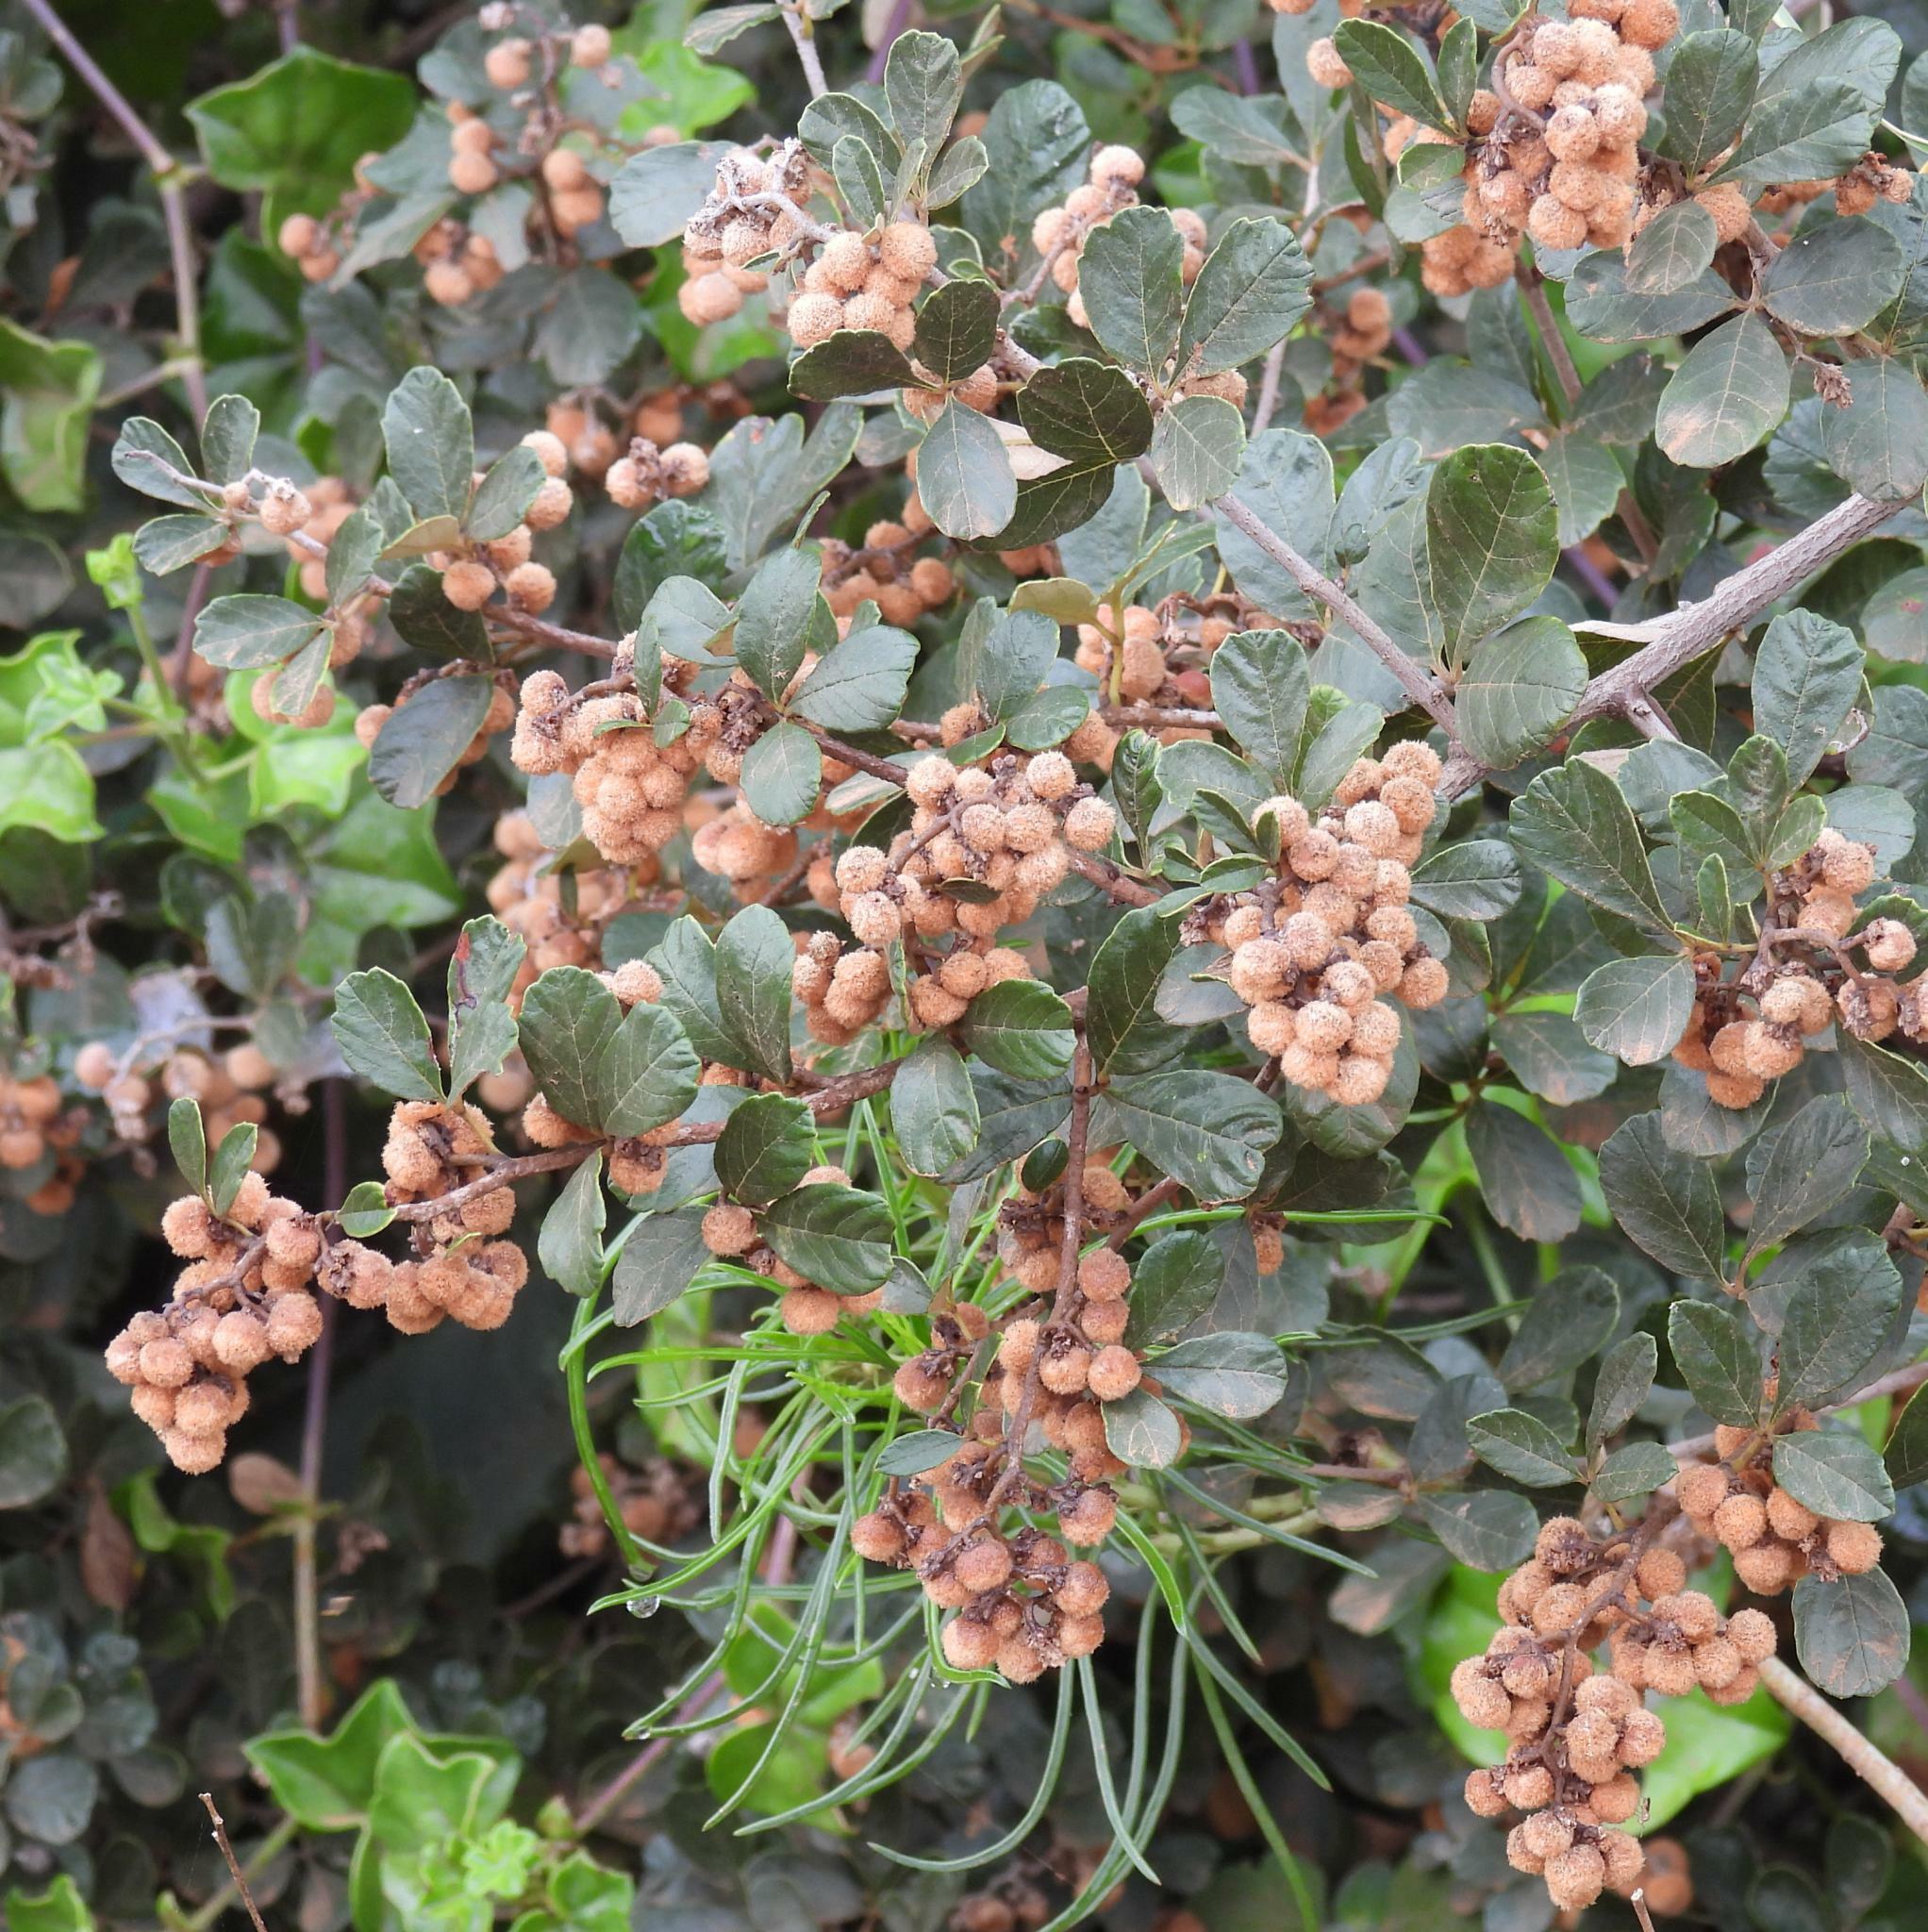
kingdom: Plantae
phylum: Tracheophyta
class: Magnoliopsida
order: Sapindales
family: Anacardiaceae
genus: Searsia
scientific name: Searsia incisa
